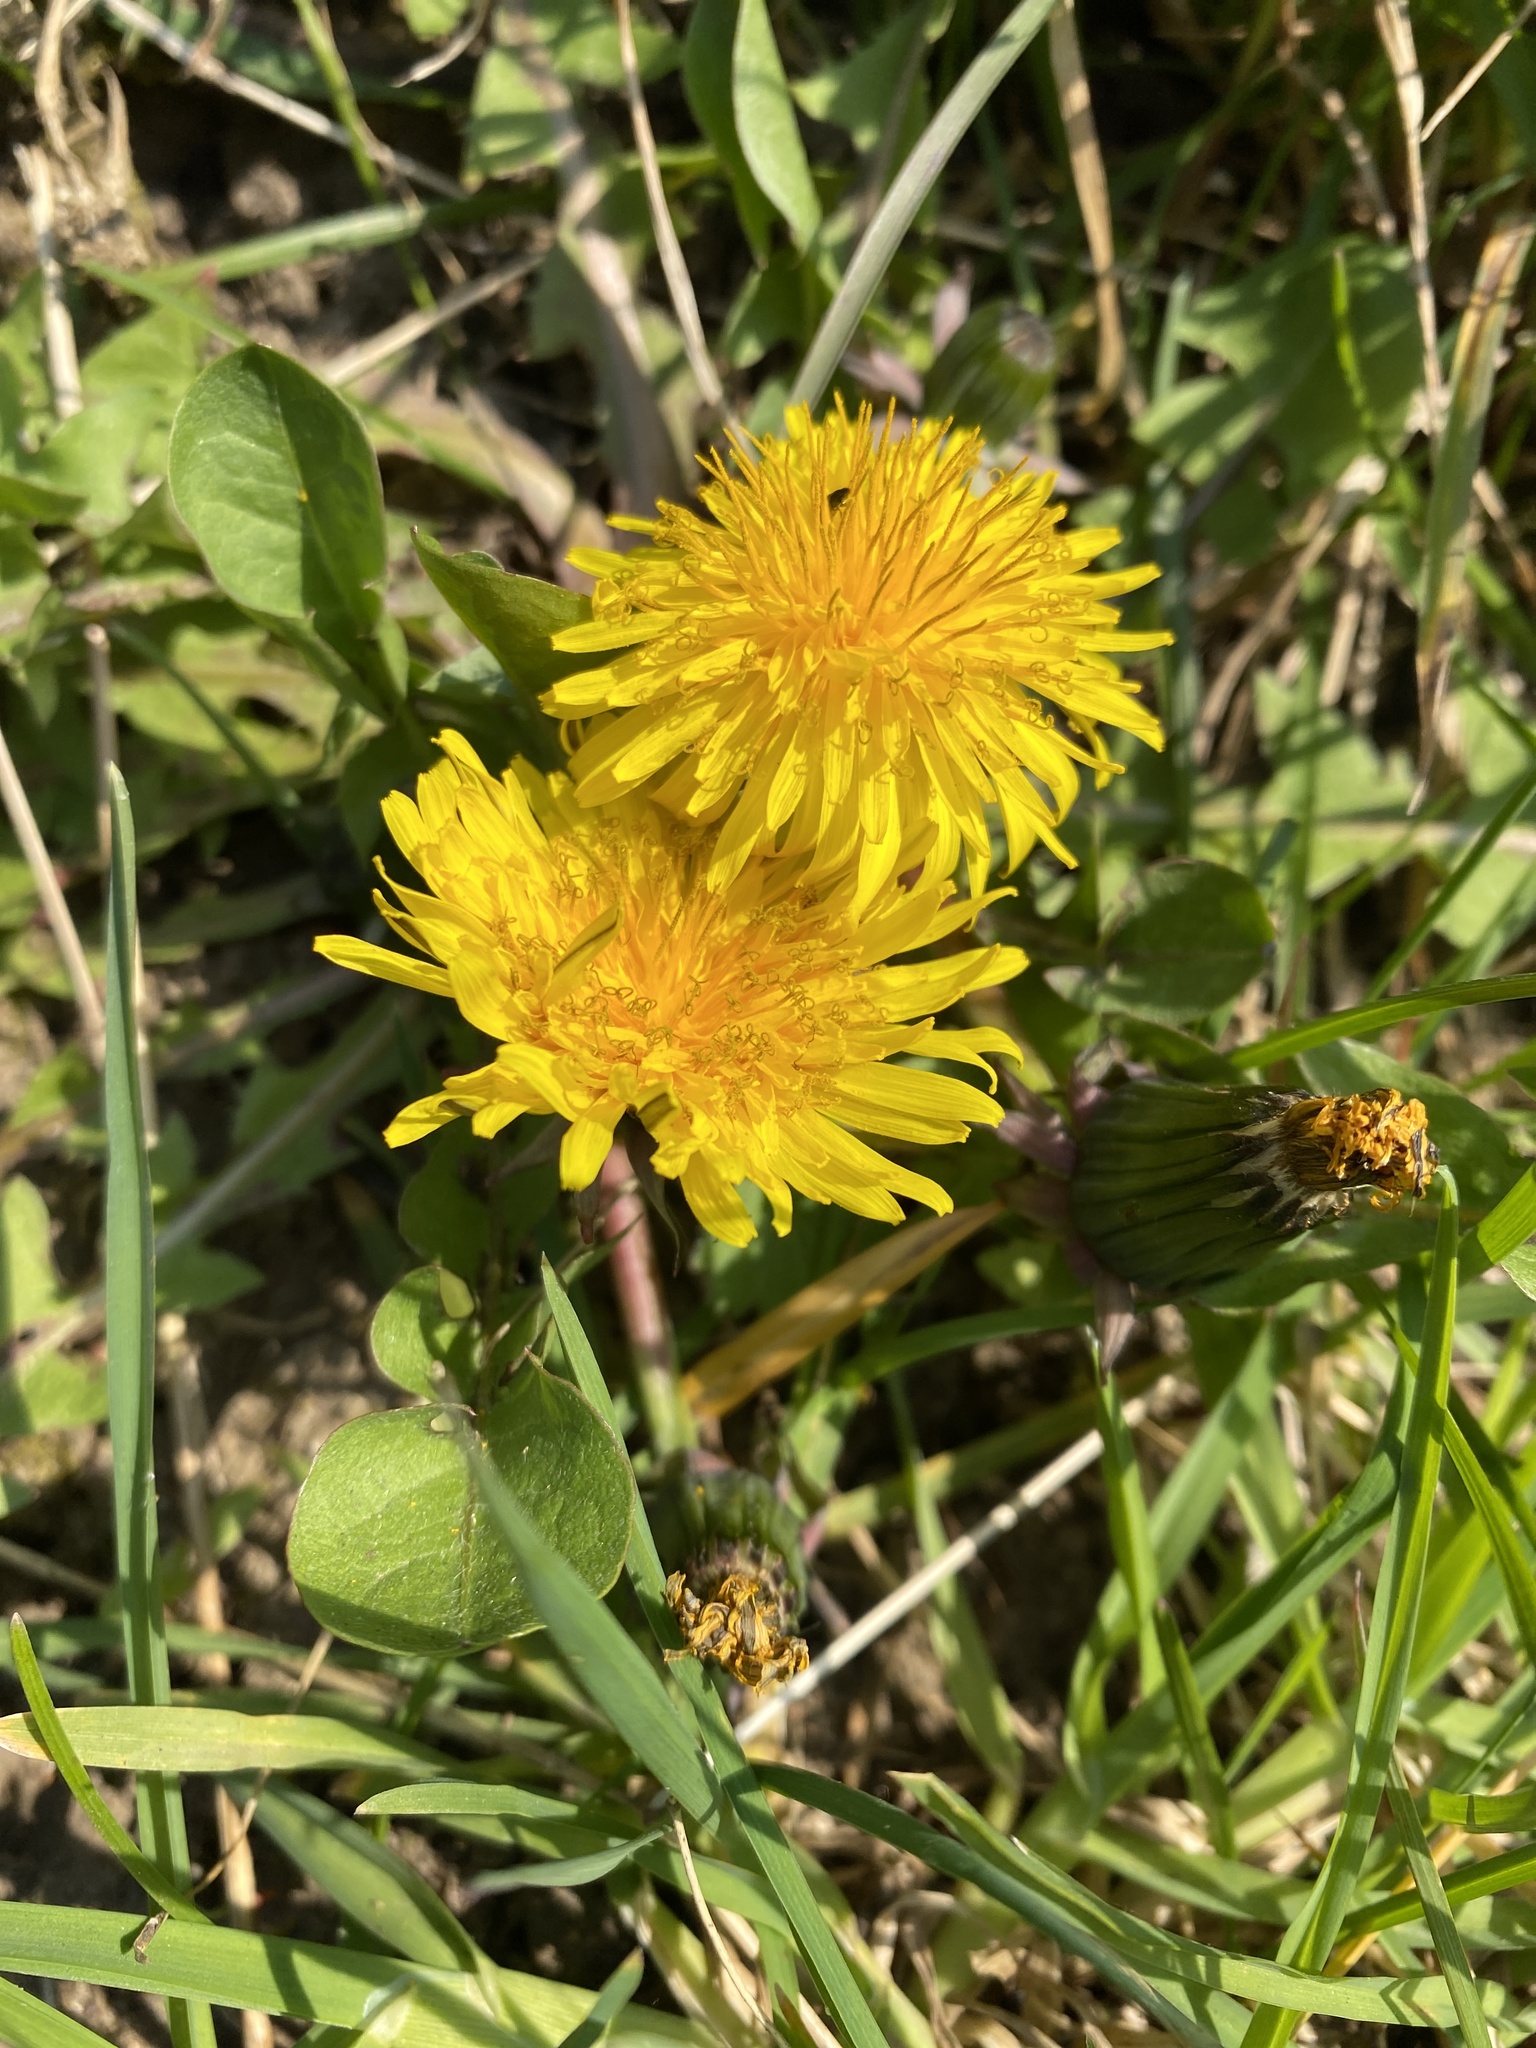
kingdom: Plantae
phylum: Tracheophyta
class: Magnoliopsida
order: Asterales
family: Asteraceae
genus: Taraxacum
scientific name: Taraxacum officinale
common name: Common dandelion
